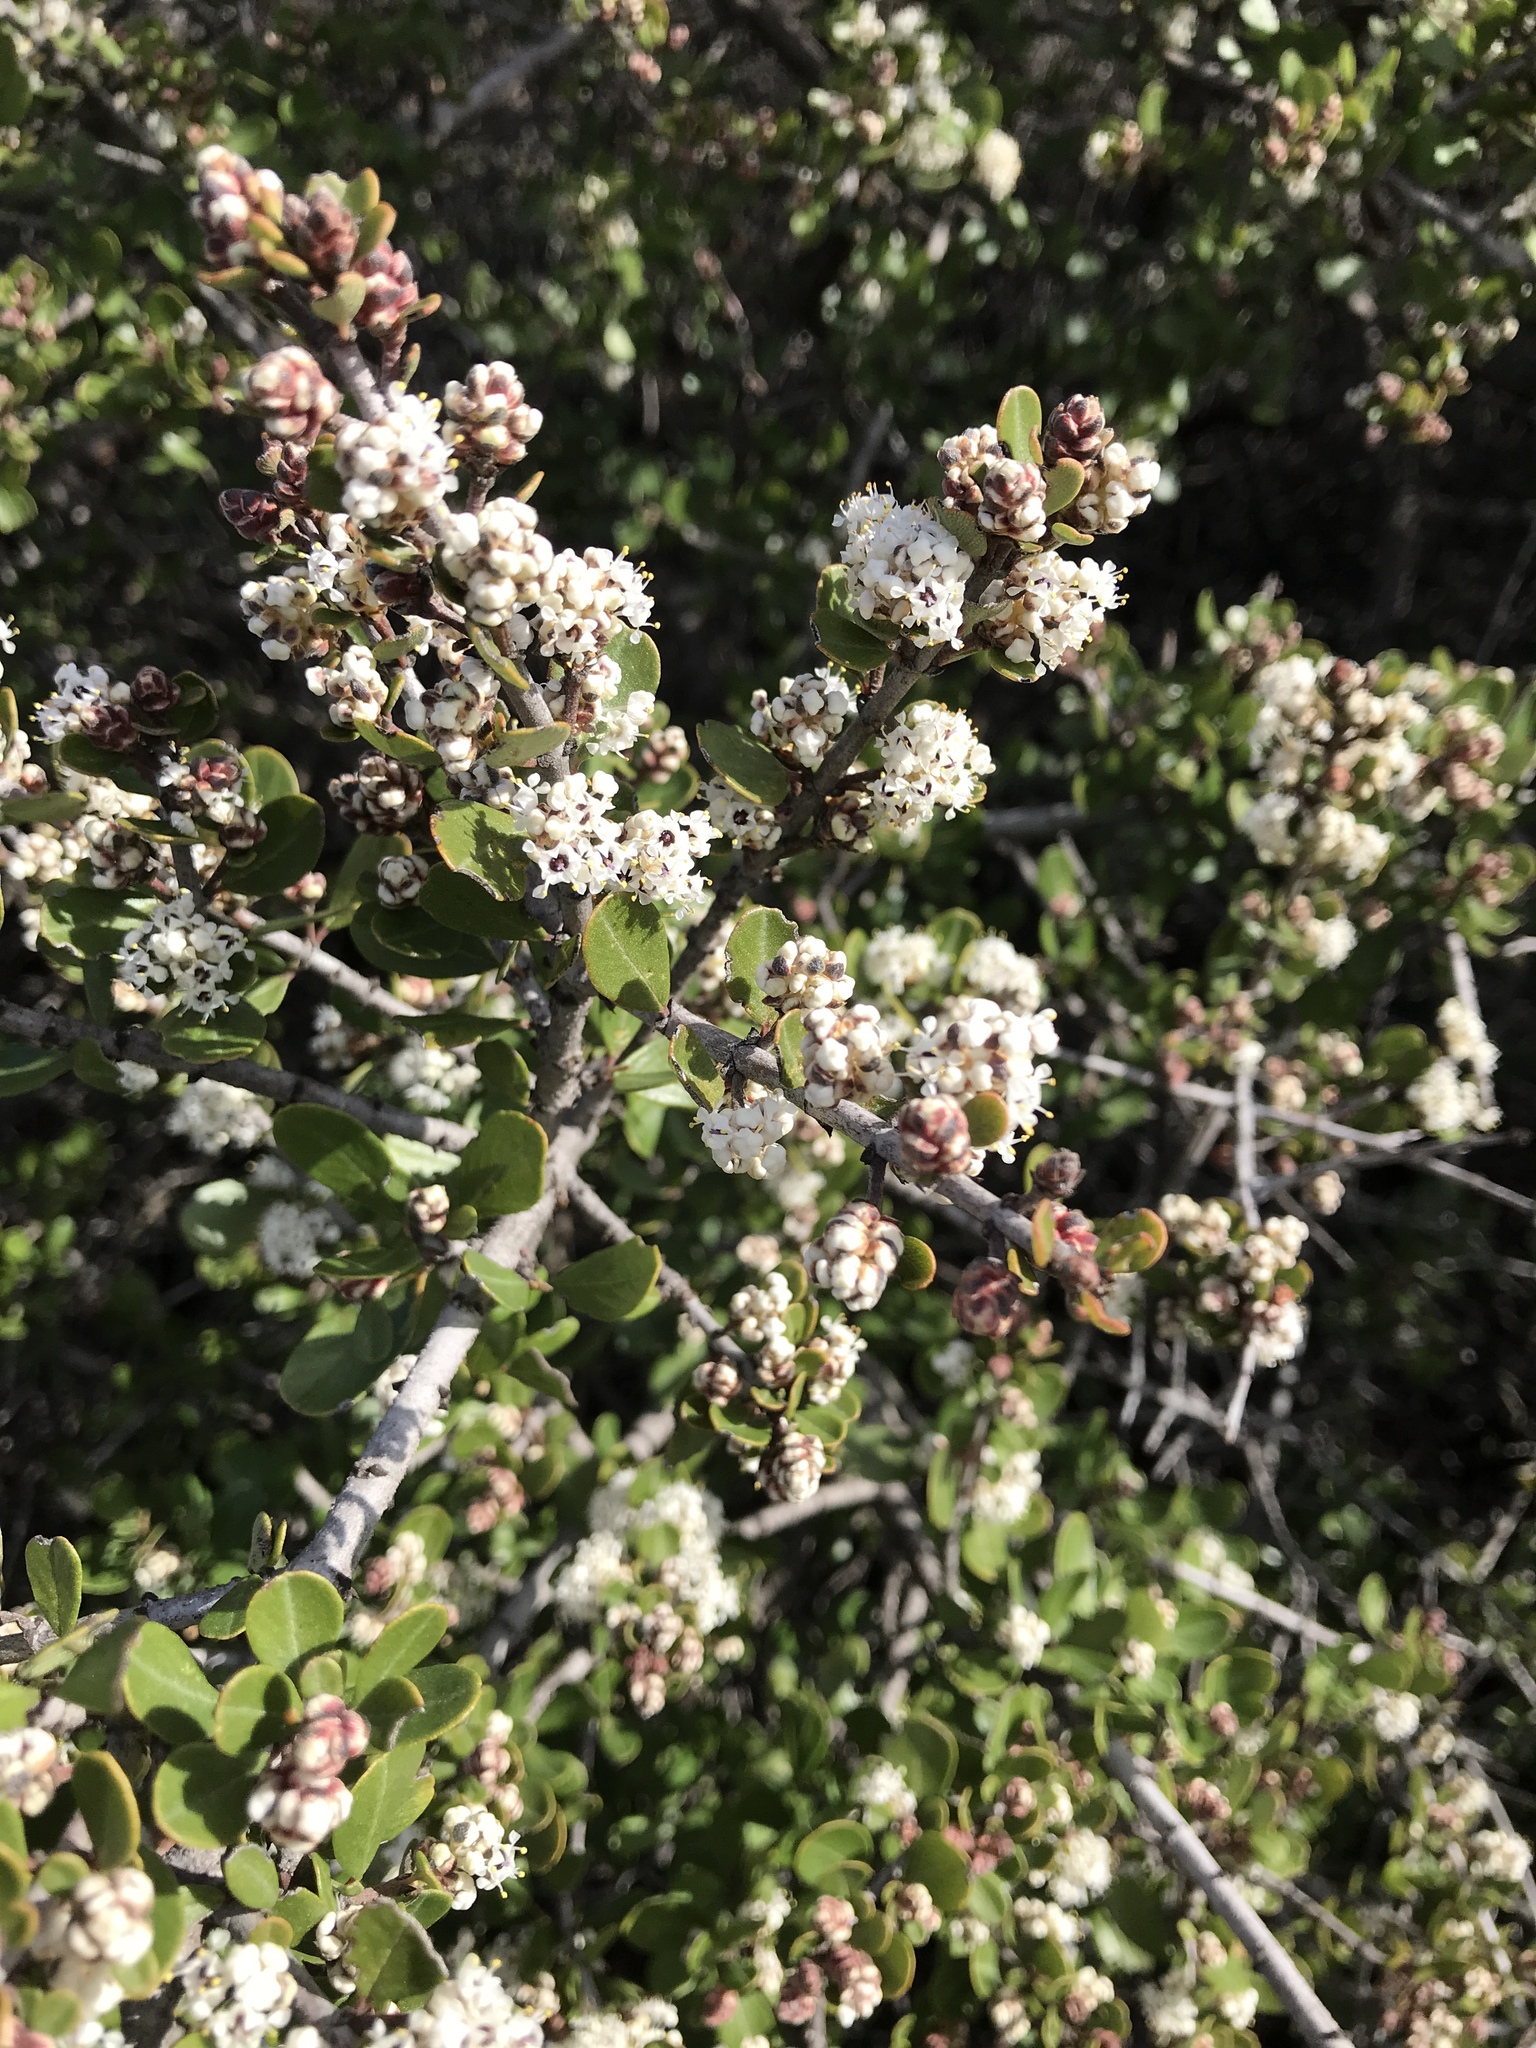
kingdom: Plantae
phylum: Tracheophyta
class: Magnoliopsida
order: Rosales
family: Rhamnaceae
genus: Ceanothus
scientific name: Ceanothus cuneatus
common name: Cuneate ceanothus
